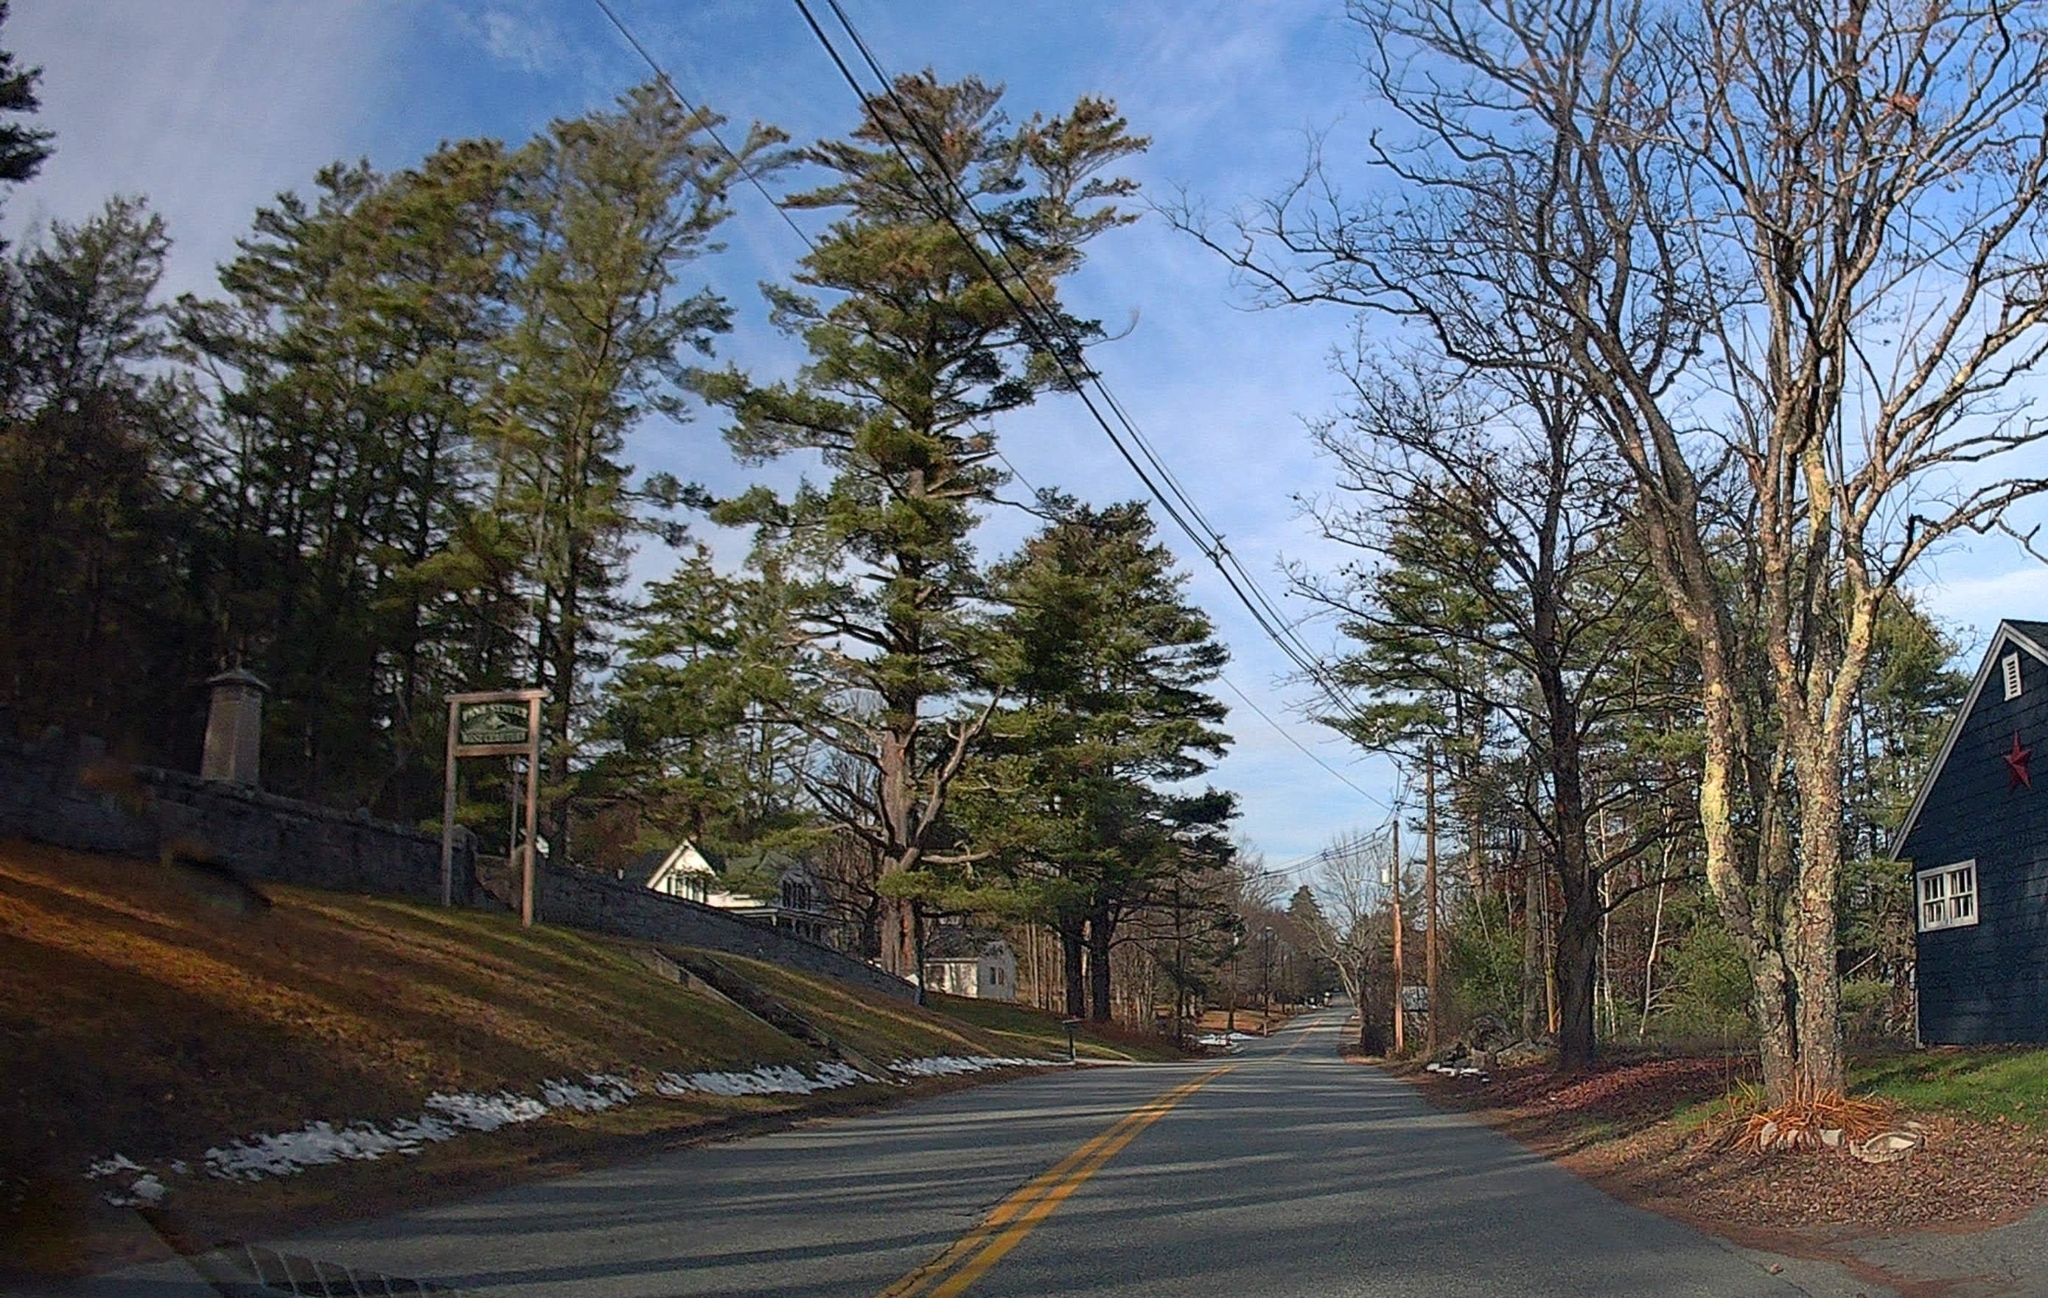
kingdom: Plantae
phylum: Tracheophyta
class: Pinopsida
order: Pinales
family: Pinaceae
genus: Pinus
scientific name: Pinus strobus
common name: Weymouth pine
